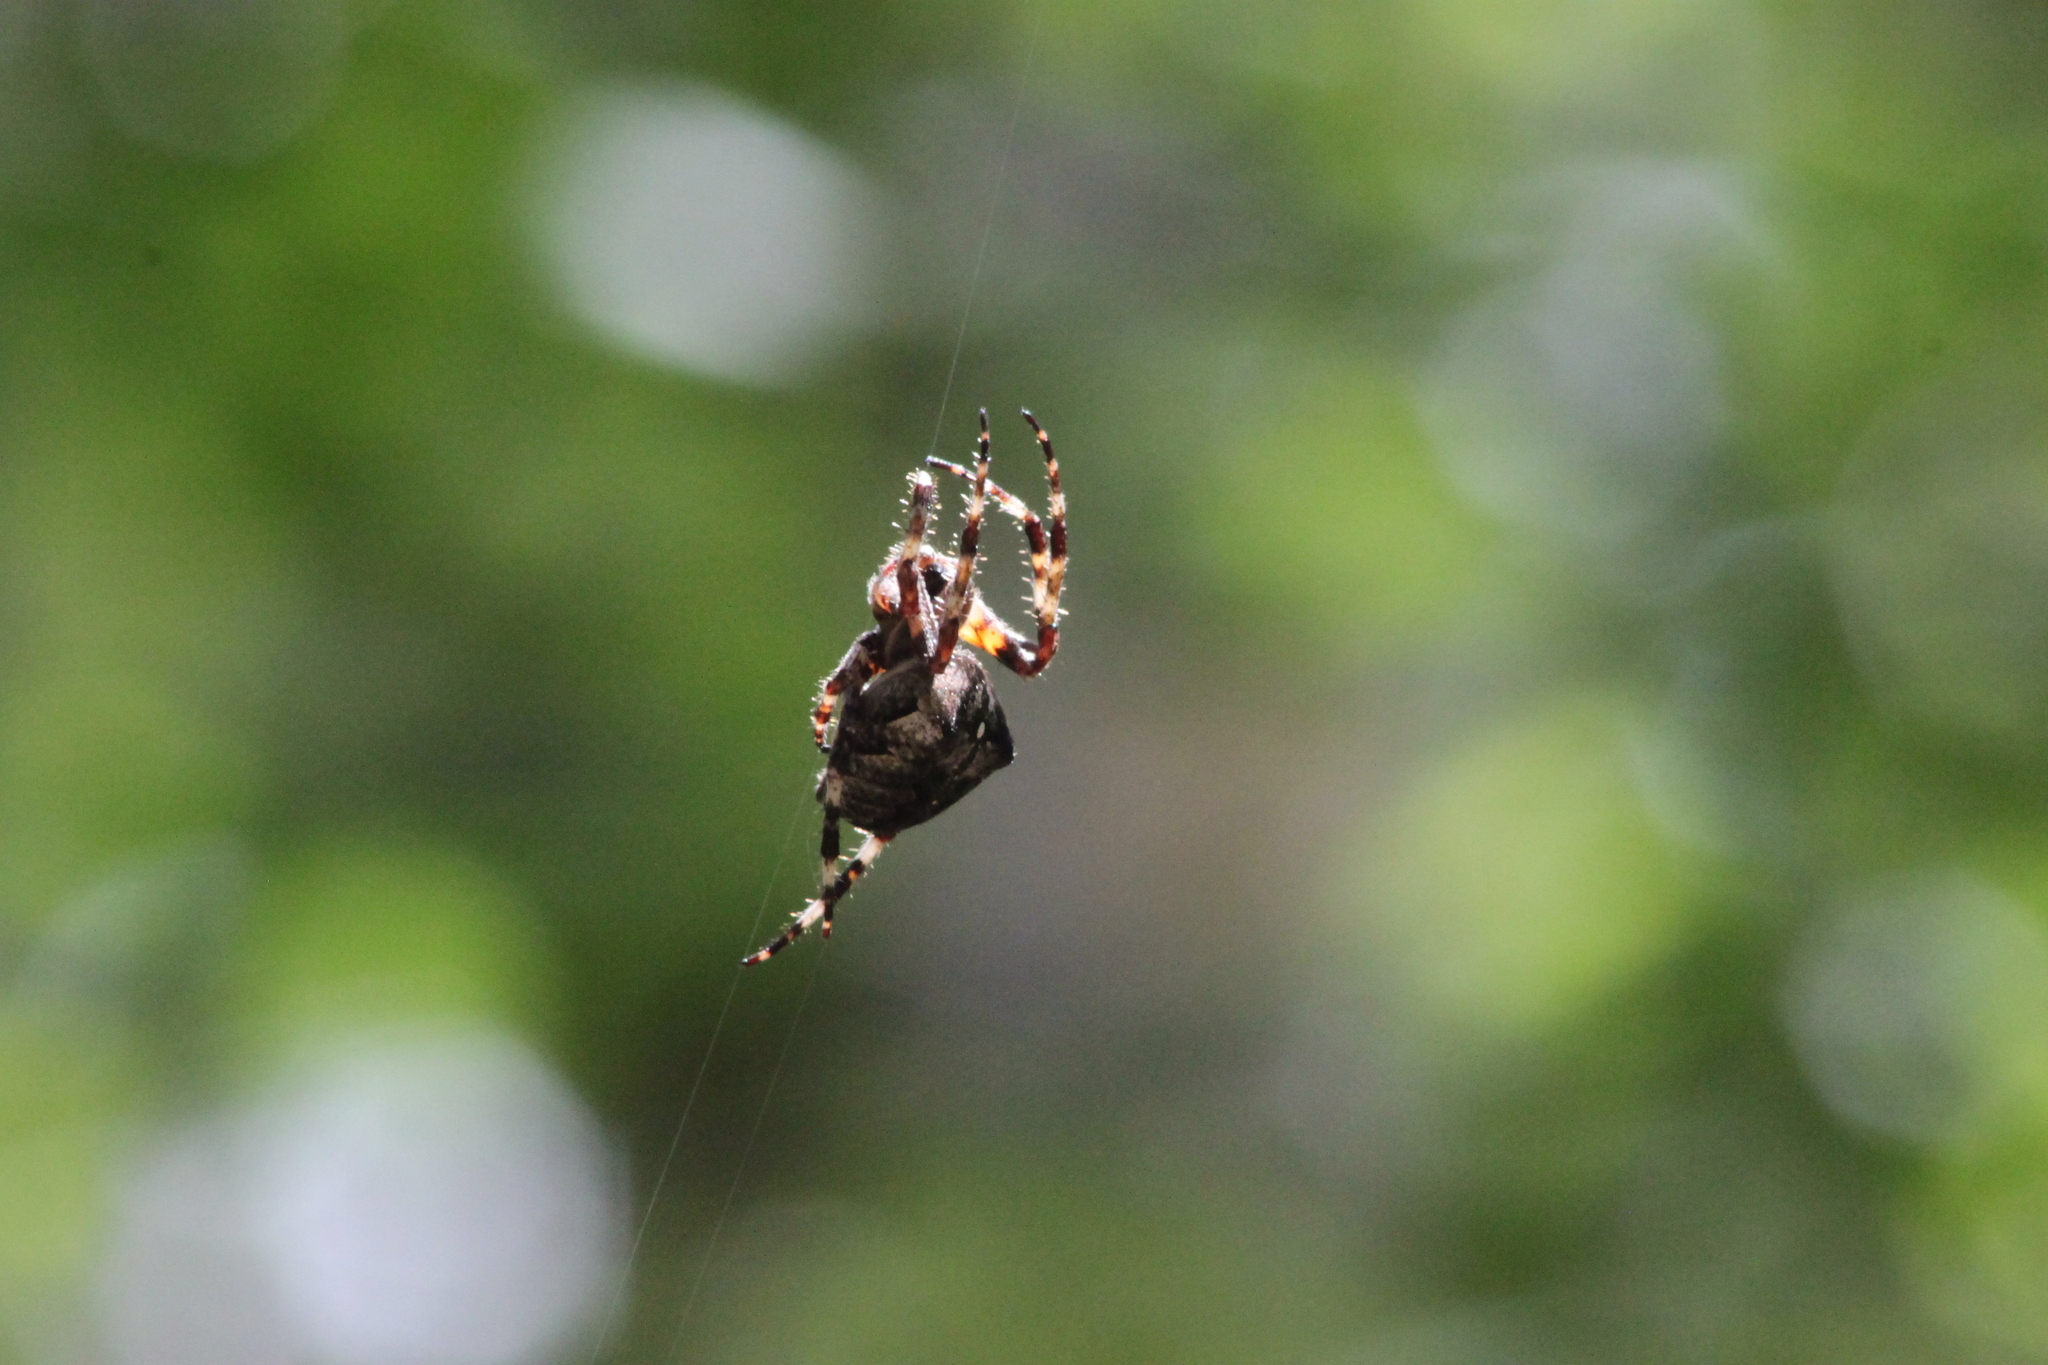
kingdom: Animalia
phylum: Arthropoda
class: Arachnida
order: Araneae
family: Araneidae
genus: Araneus
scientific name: Araneus angulatus
